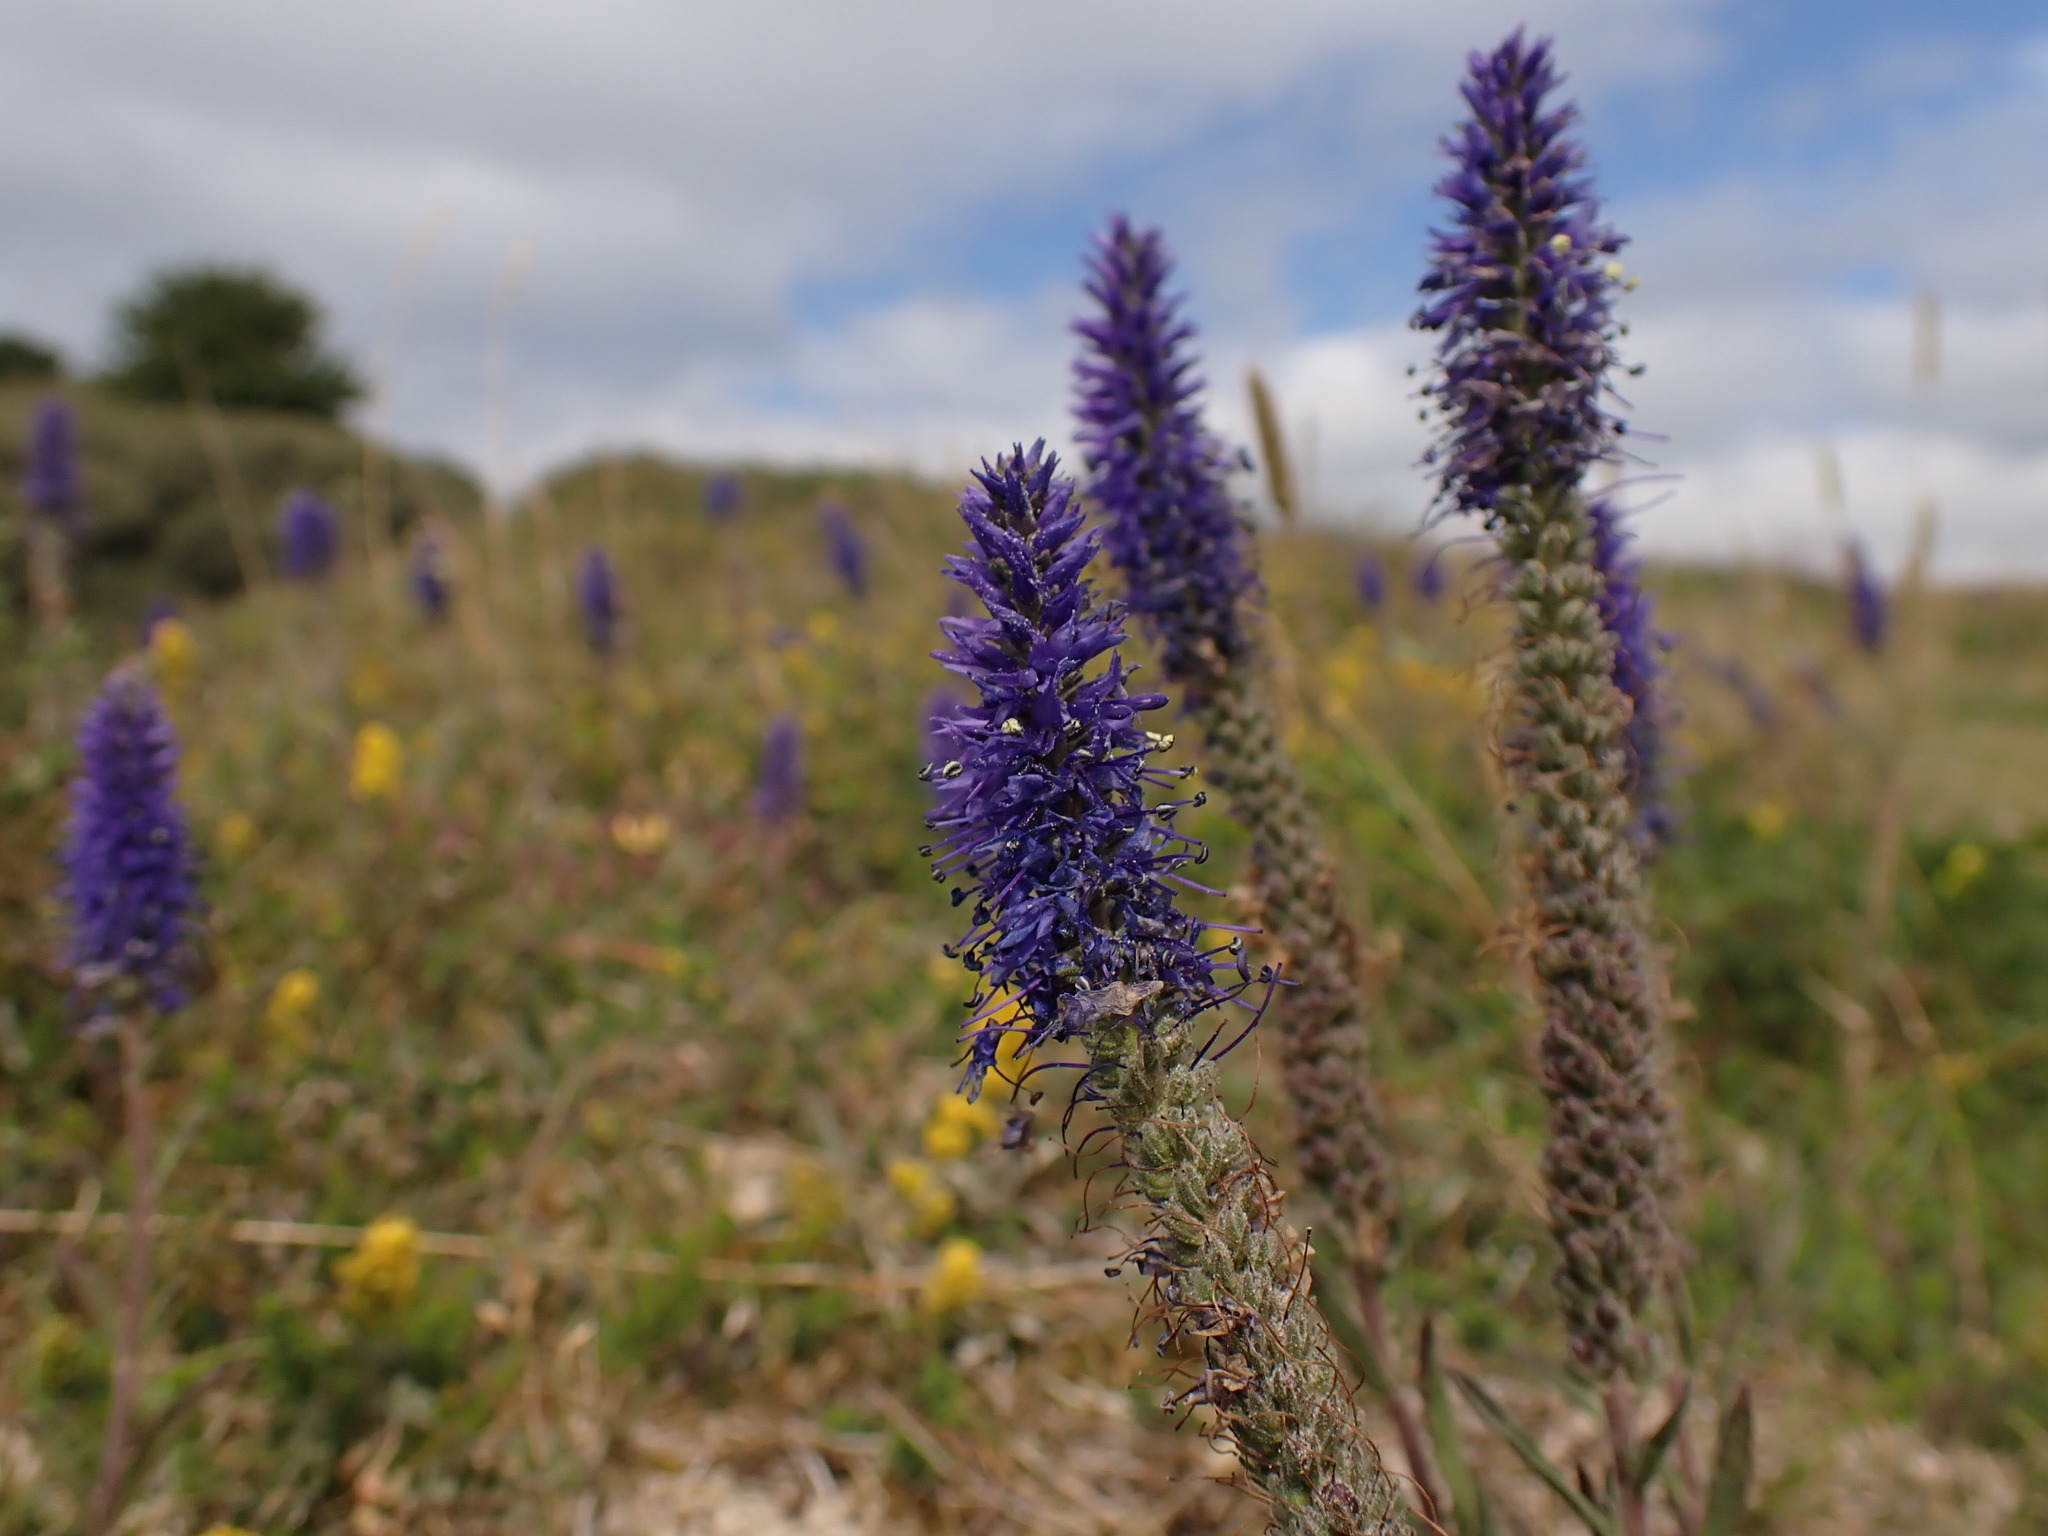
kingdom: Plantae
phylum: Tracheophyta
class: Magnoliopsida
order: Lamiales
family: Plantaginaceae
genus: Veronica
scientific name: Veronica spicata
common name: Spiked speedwell
